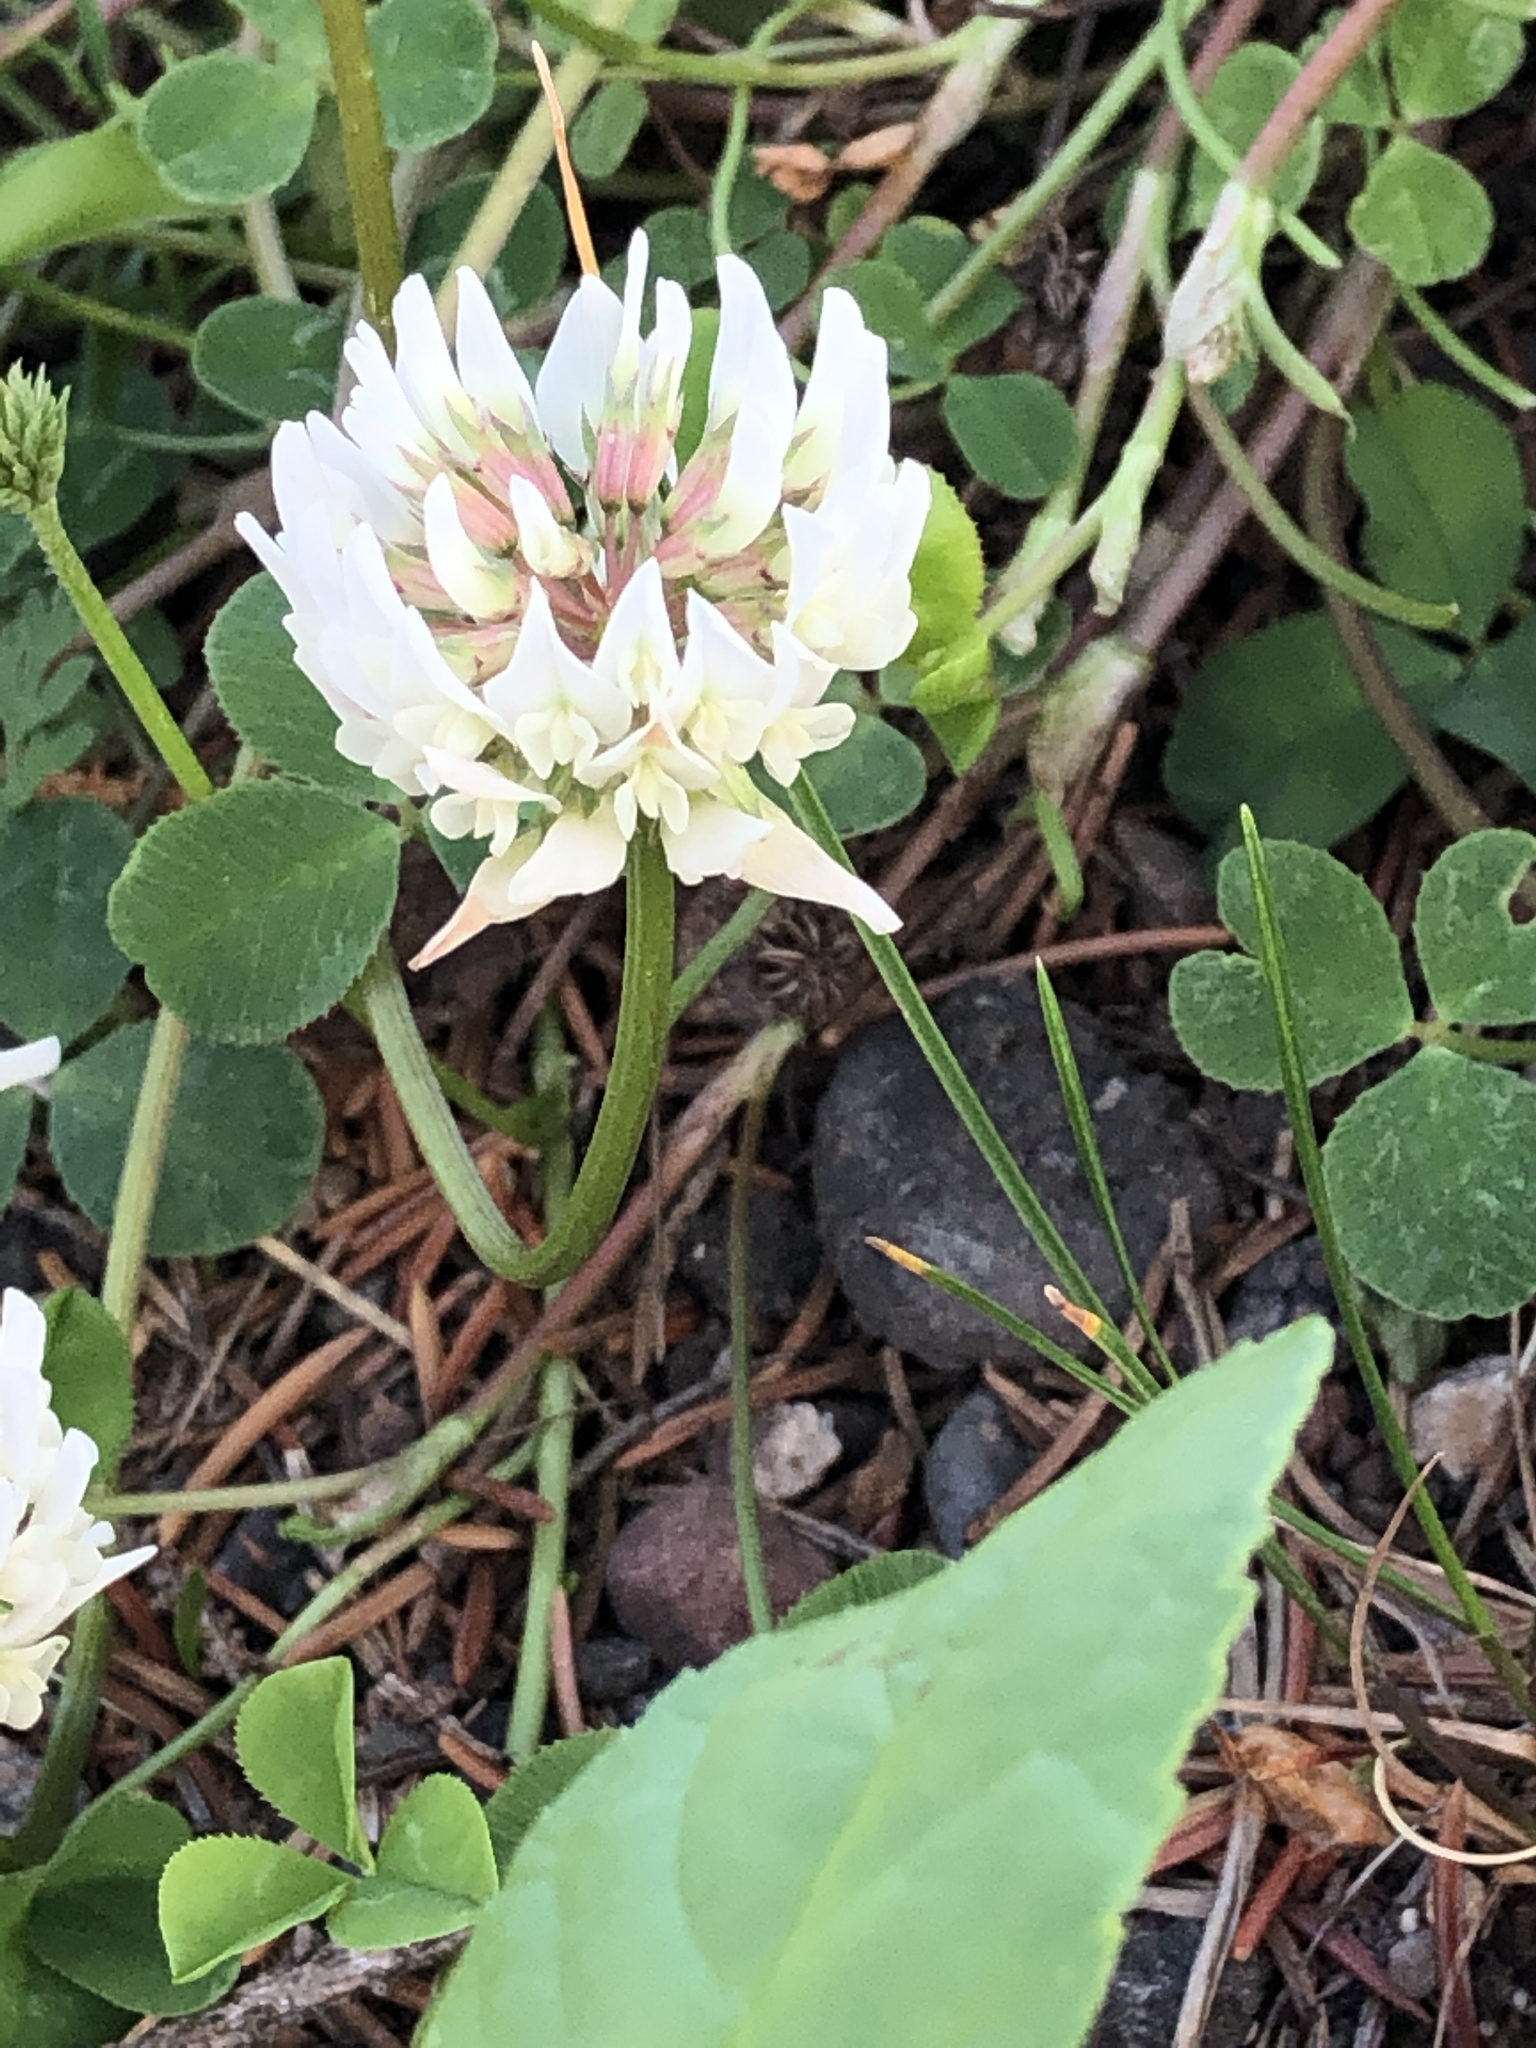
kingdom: Plantae
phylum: Tracheophyta
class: Magnoliopsida
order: Fabales
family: Fabaceae
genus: Trifolium
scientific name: Trifolium repens
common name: White clover
